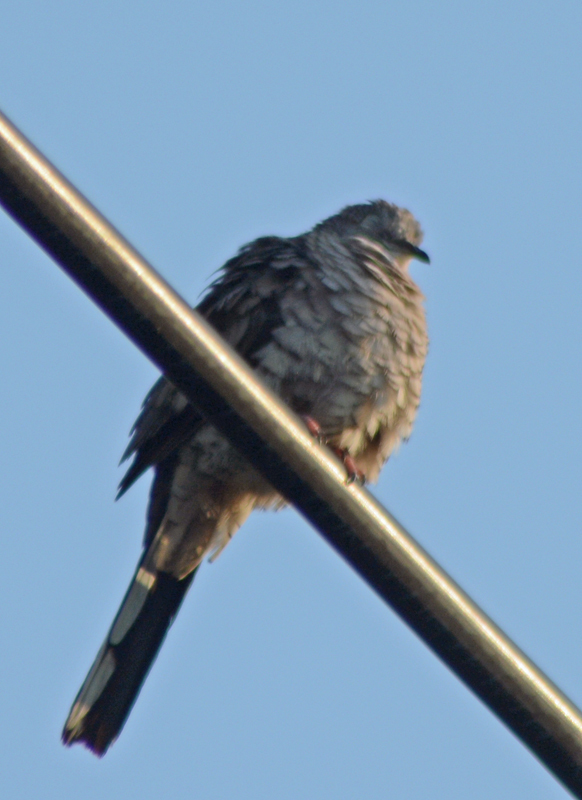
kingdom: Animalia
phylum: Chordata
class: Aves
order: Columbiformes
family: Columbidae
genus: Columbina
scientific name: Columbina inca
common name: Inca dove
